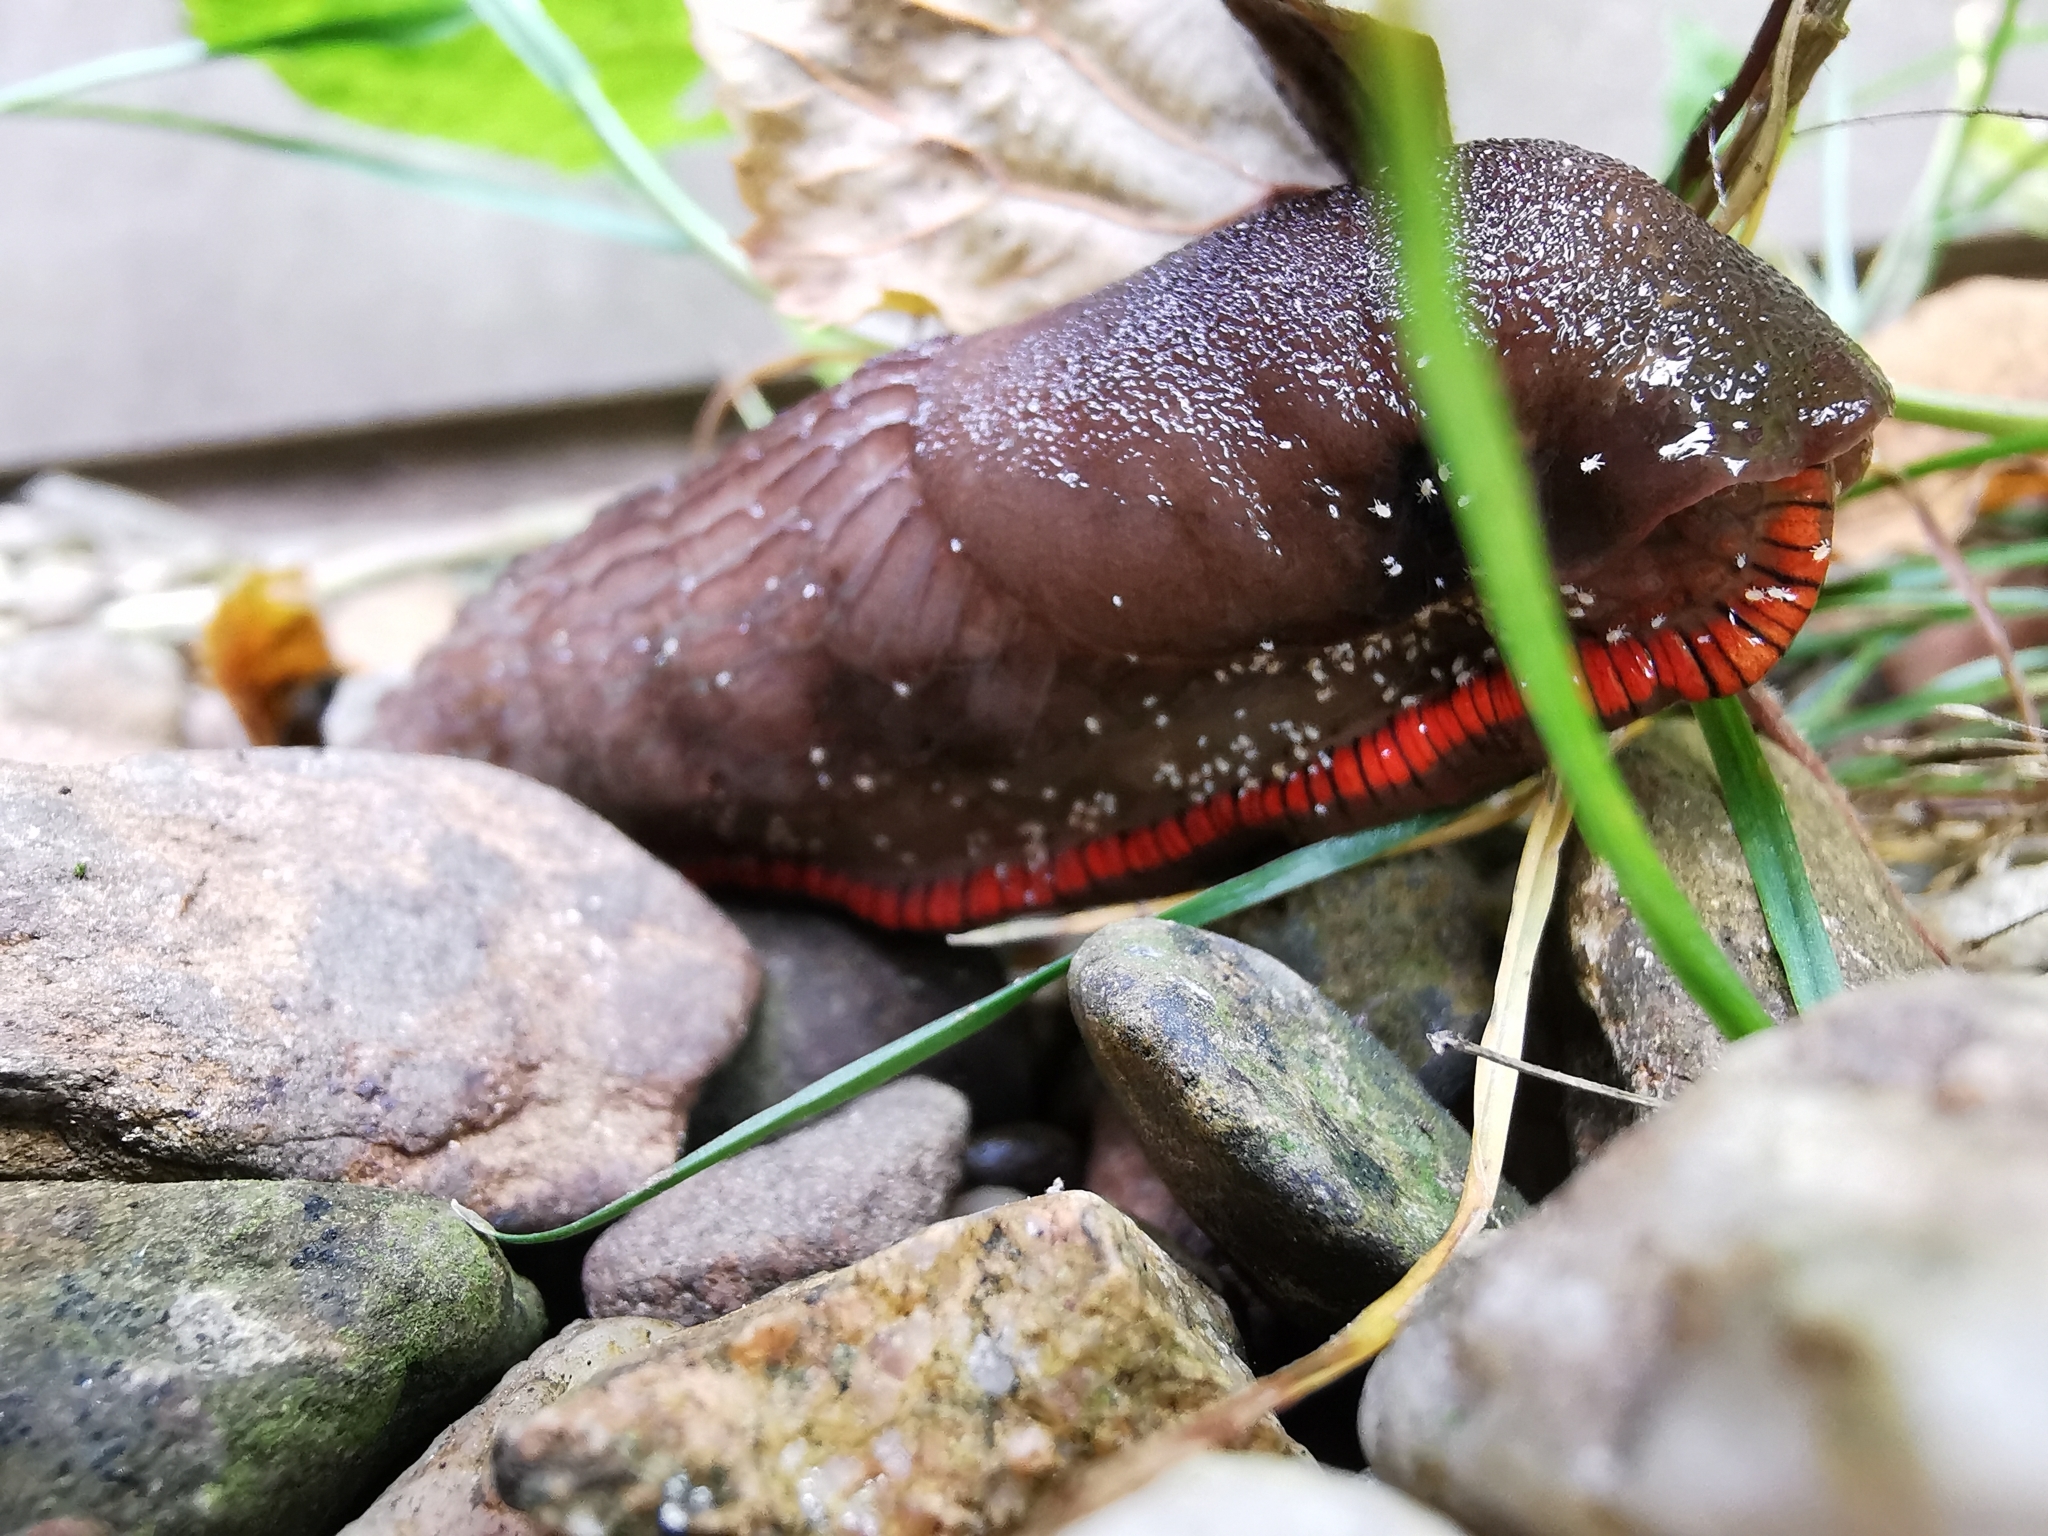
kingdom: Animalia
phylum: Arthropoda
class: Arachnida
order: Trombidiformes
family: Ereynetidae
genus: Riccardoella
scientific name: Riccardoella oudemansi
